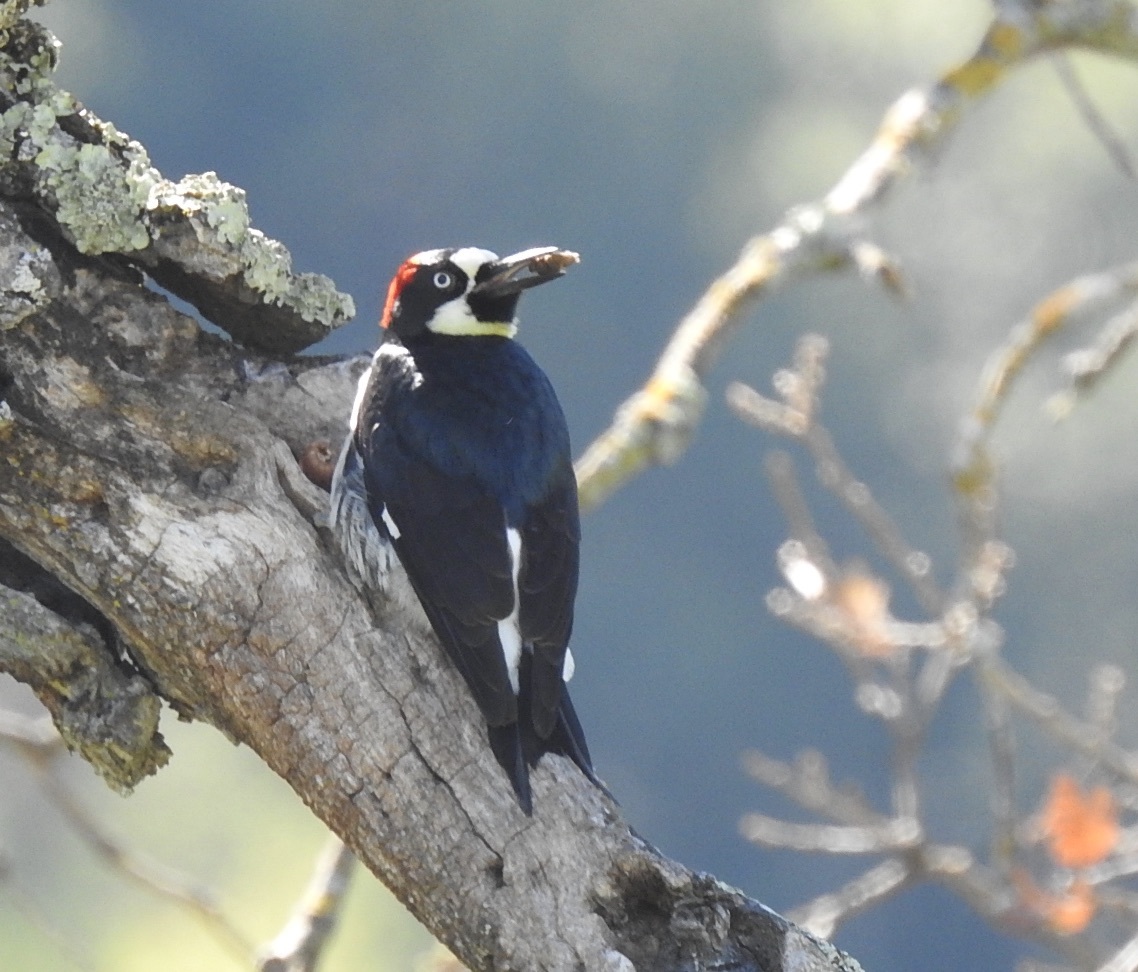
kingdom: Animalia
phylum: Chordata
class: Aves
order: Piciformes
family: Picidae
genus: Melanerpes
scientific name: Melanerpes formicivorus
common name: Acorn woodpecker
